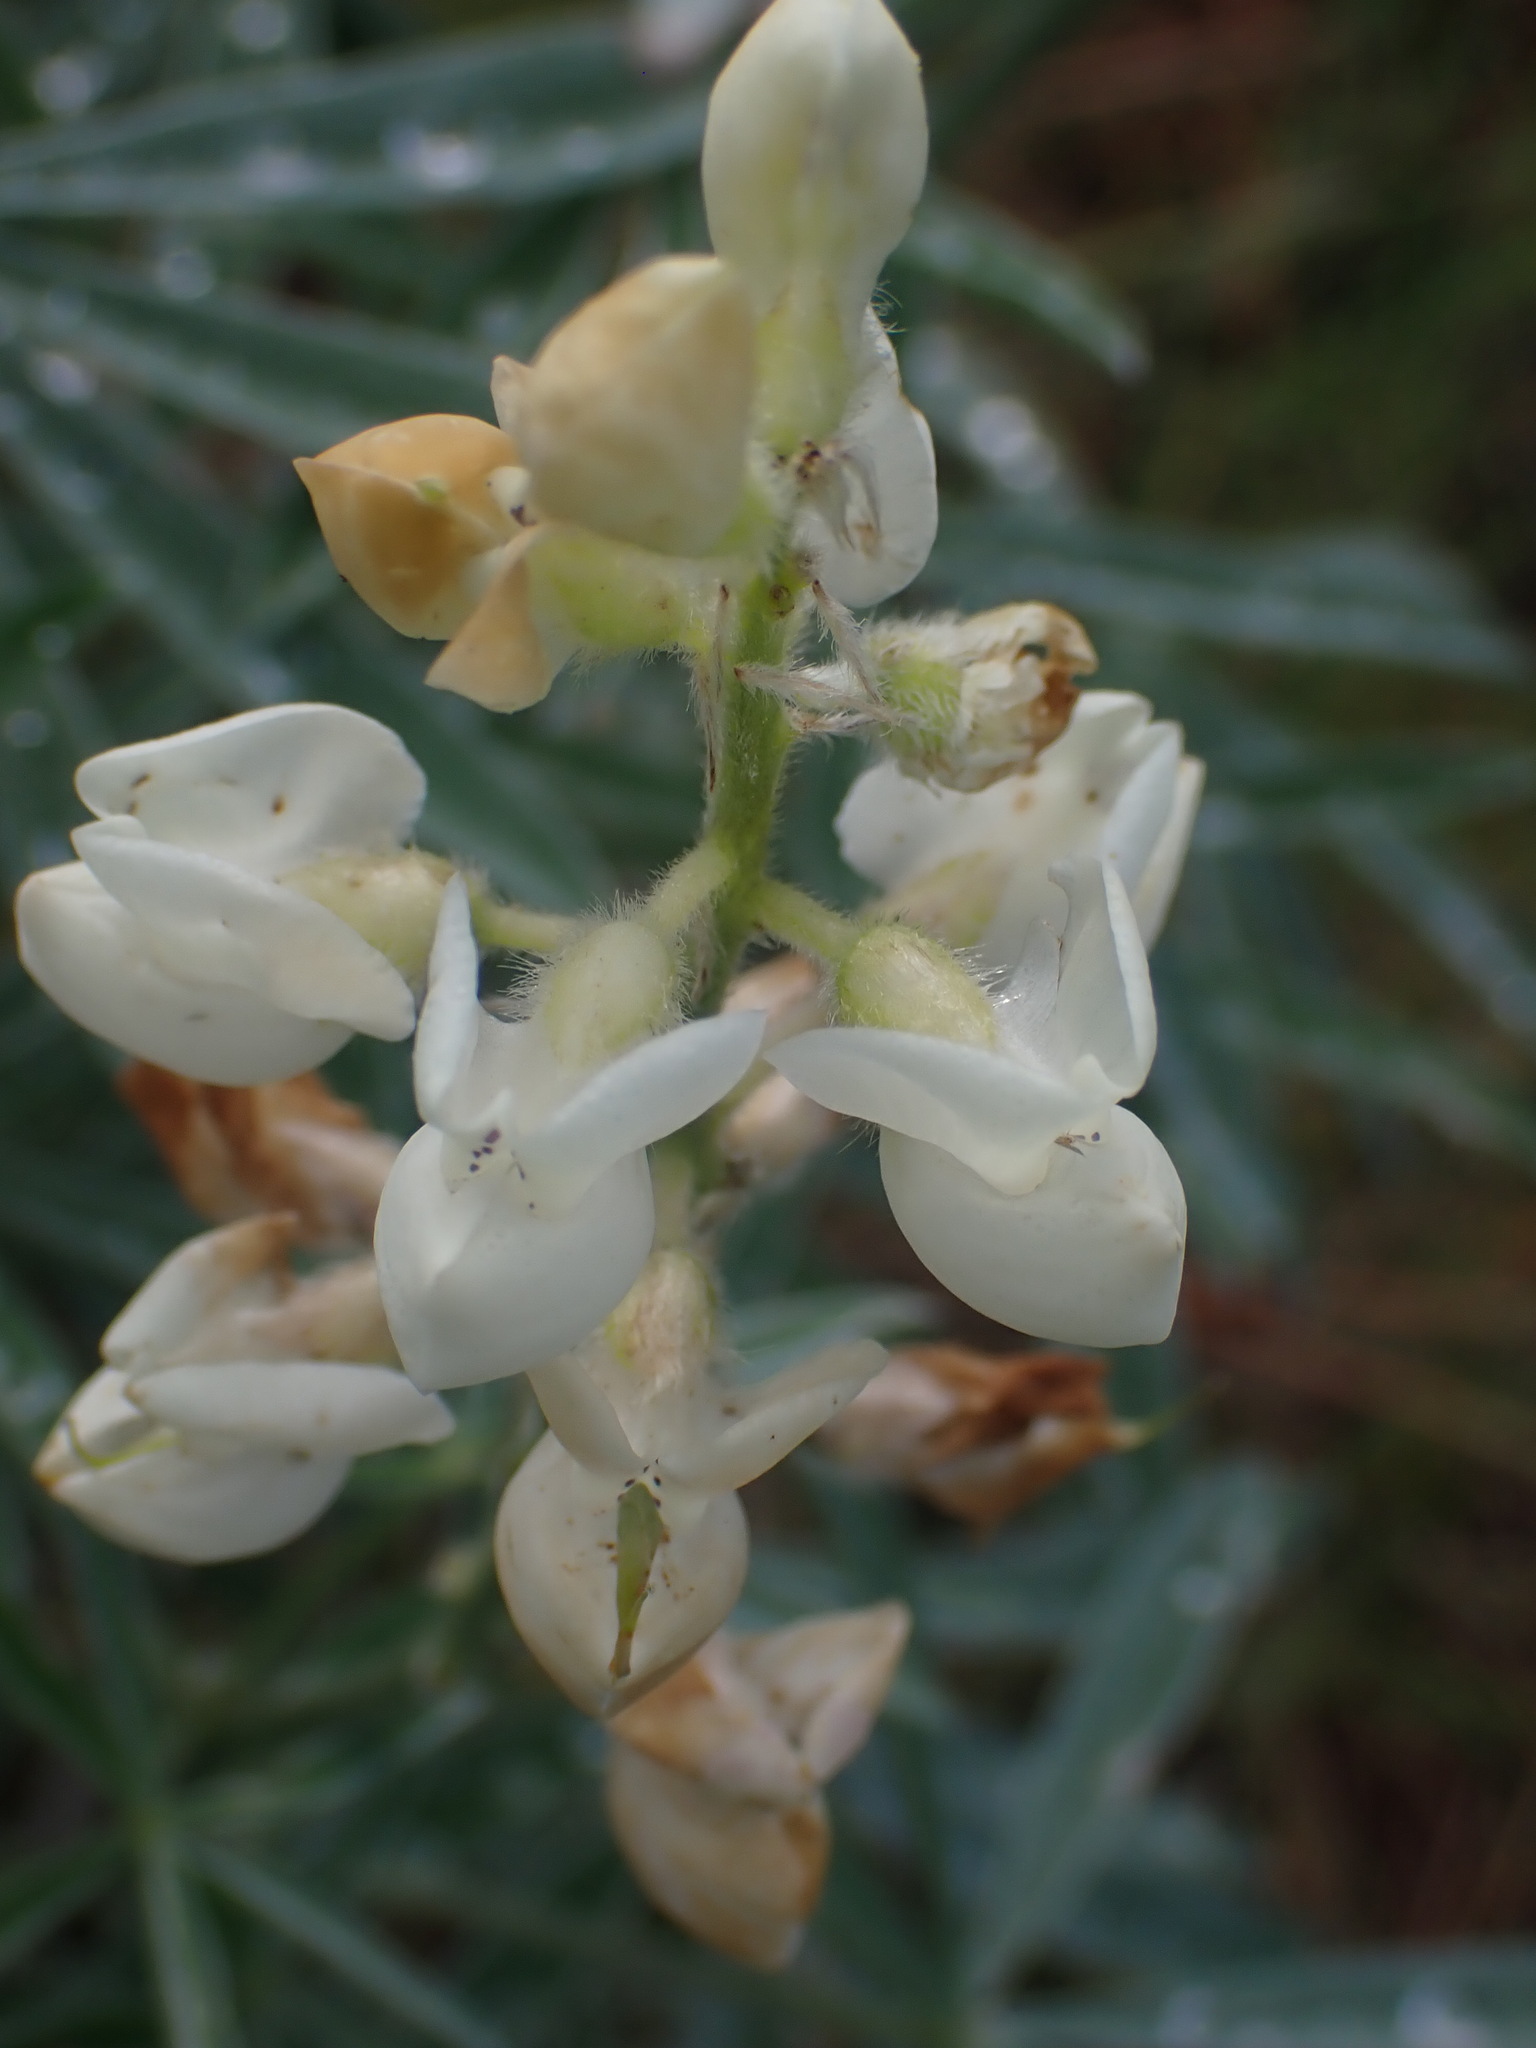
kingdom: Plantae
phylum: Tracheophyta
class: Magnoliopsida
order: Fabales
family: Fabaceae
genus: Lupinus
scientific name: Lupinus sulphureus
